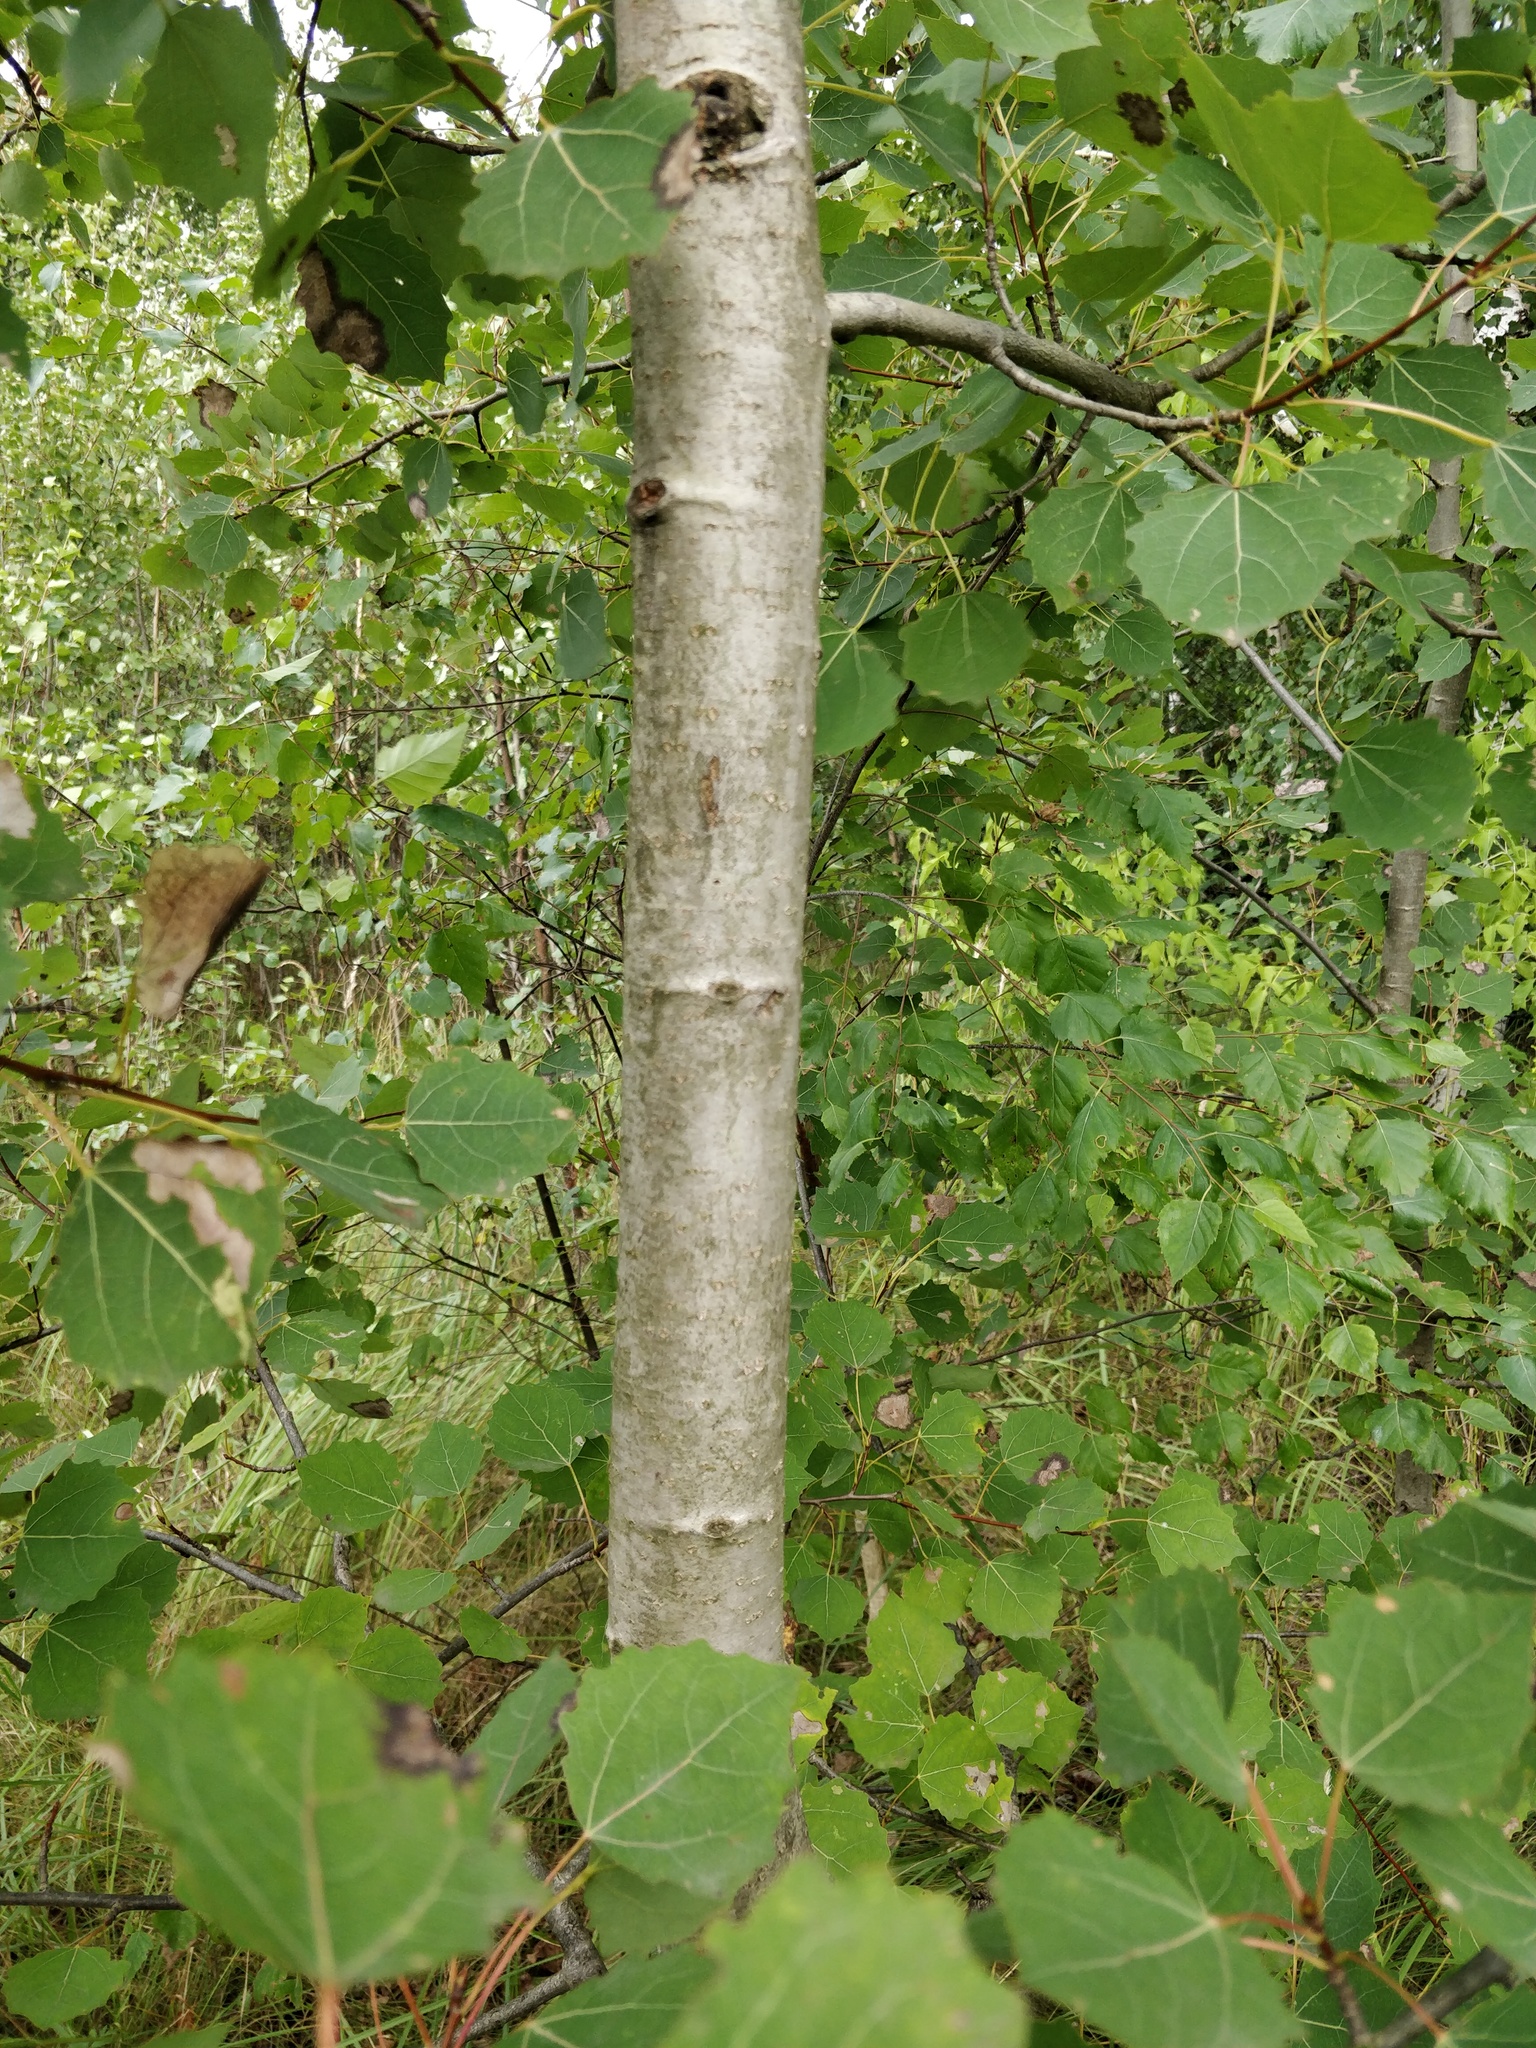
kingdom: Plantae
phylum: Tracheophyta
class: Magnoliopsida
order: Malpighiales
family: Salicaceae
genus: Populus
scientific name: Populus tremula
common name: European aspen
